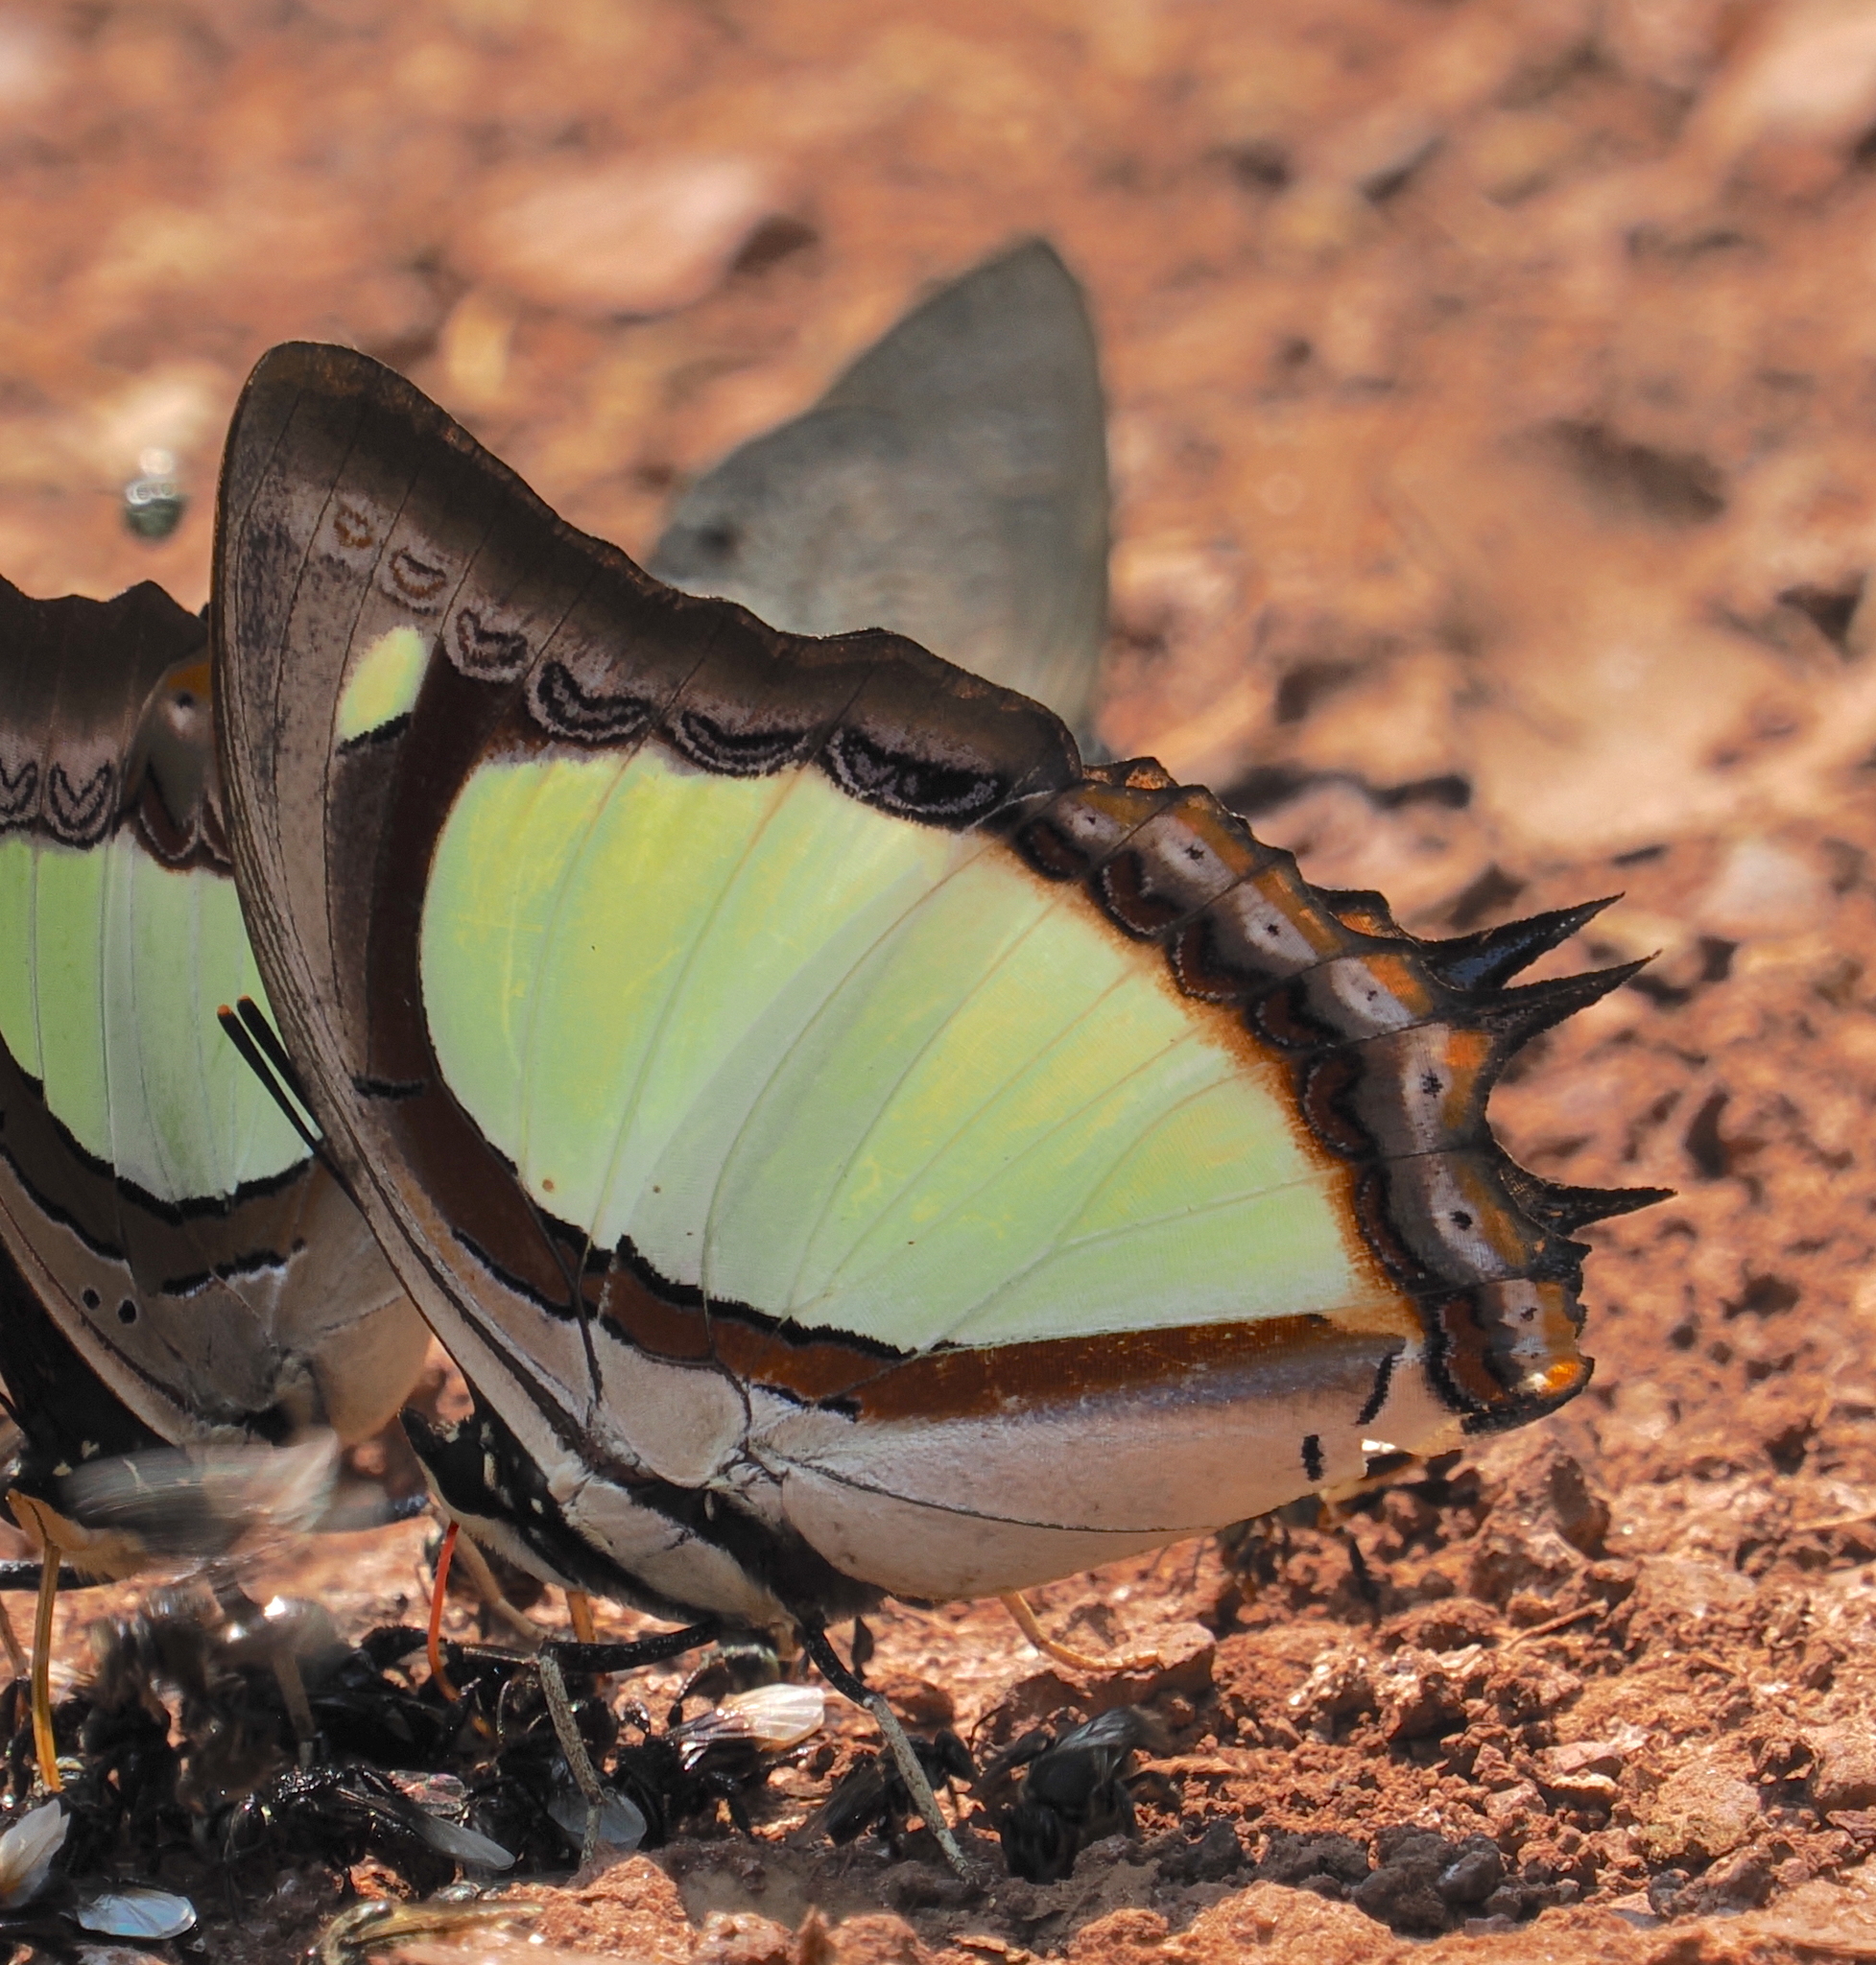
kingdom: Animalia
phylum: Arthropoda
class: Insecta
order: Lepidoptera
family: Nymphalidae
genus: Polyura
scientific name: Polyura jalysus
